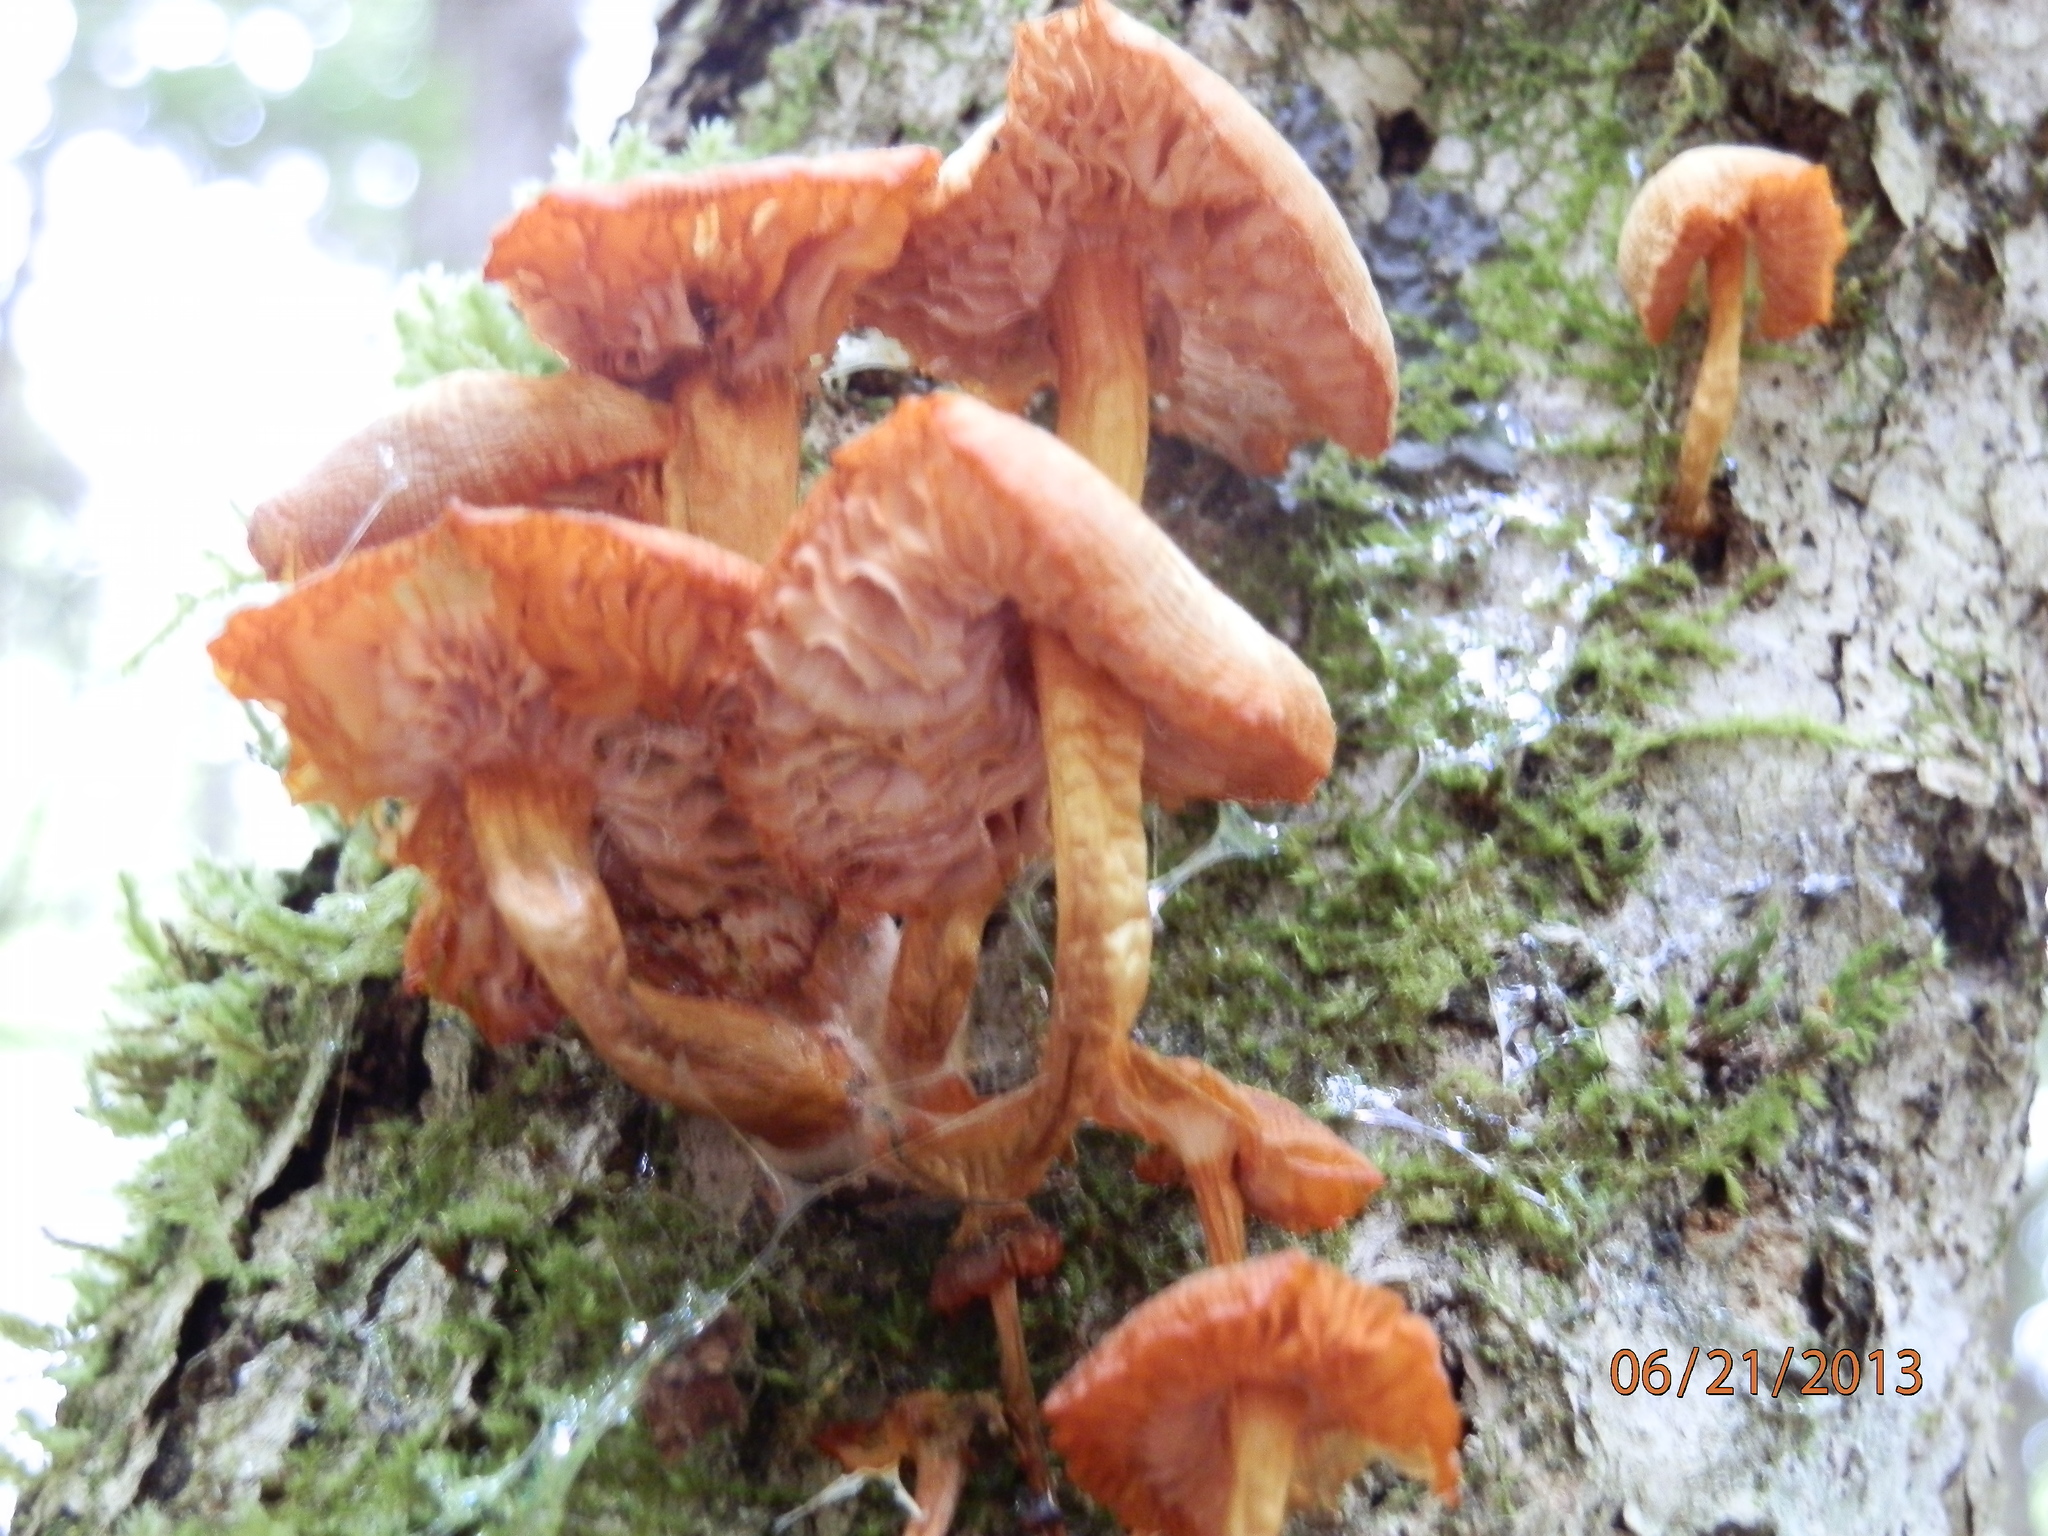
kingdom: Fungi
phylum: Basidiomycota
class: Agaricomycetes
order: Agaricales
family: Mycenaceae
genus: Mycena
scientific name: Mycena leaiana
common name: Orange mycena
